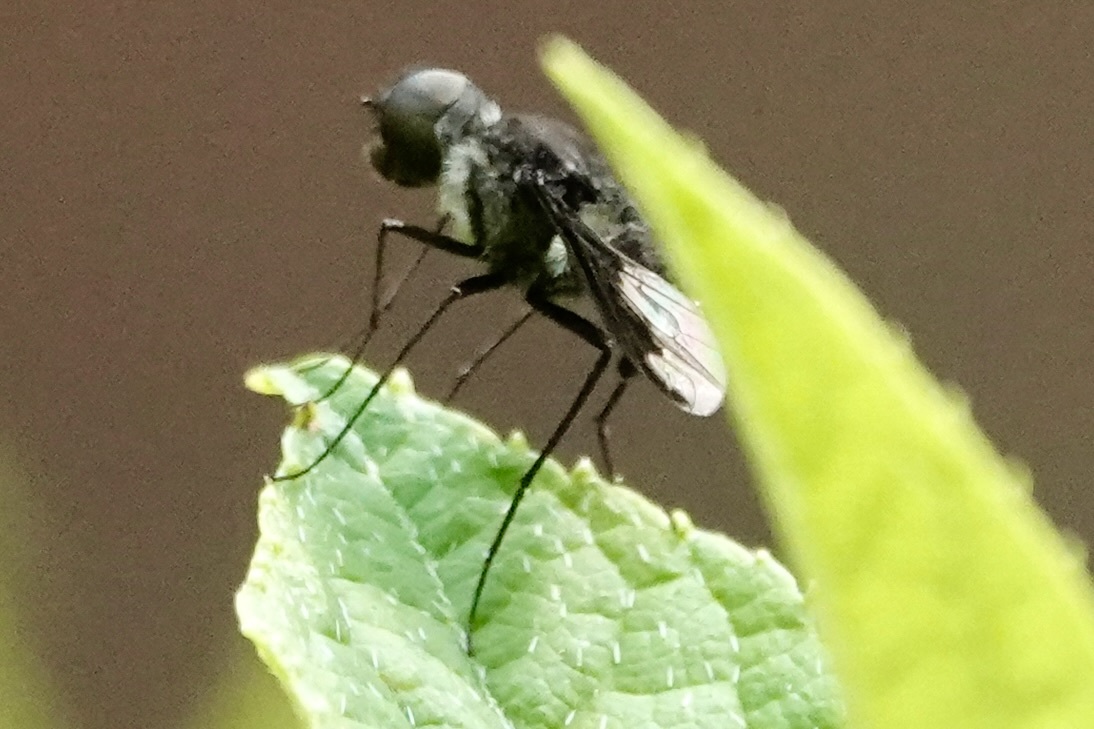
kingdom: Animalia
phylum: Arthropoda
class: Insecta
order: Diptera
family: Bombyliidae
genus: Anthrax
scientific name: Anthrax argyropygus
